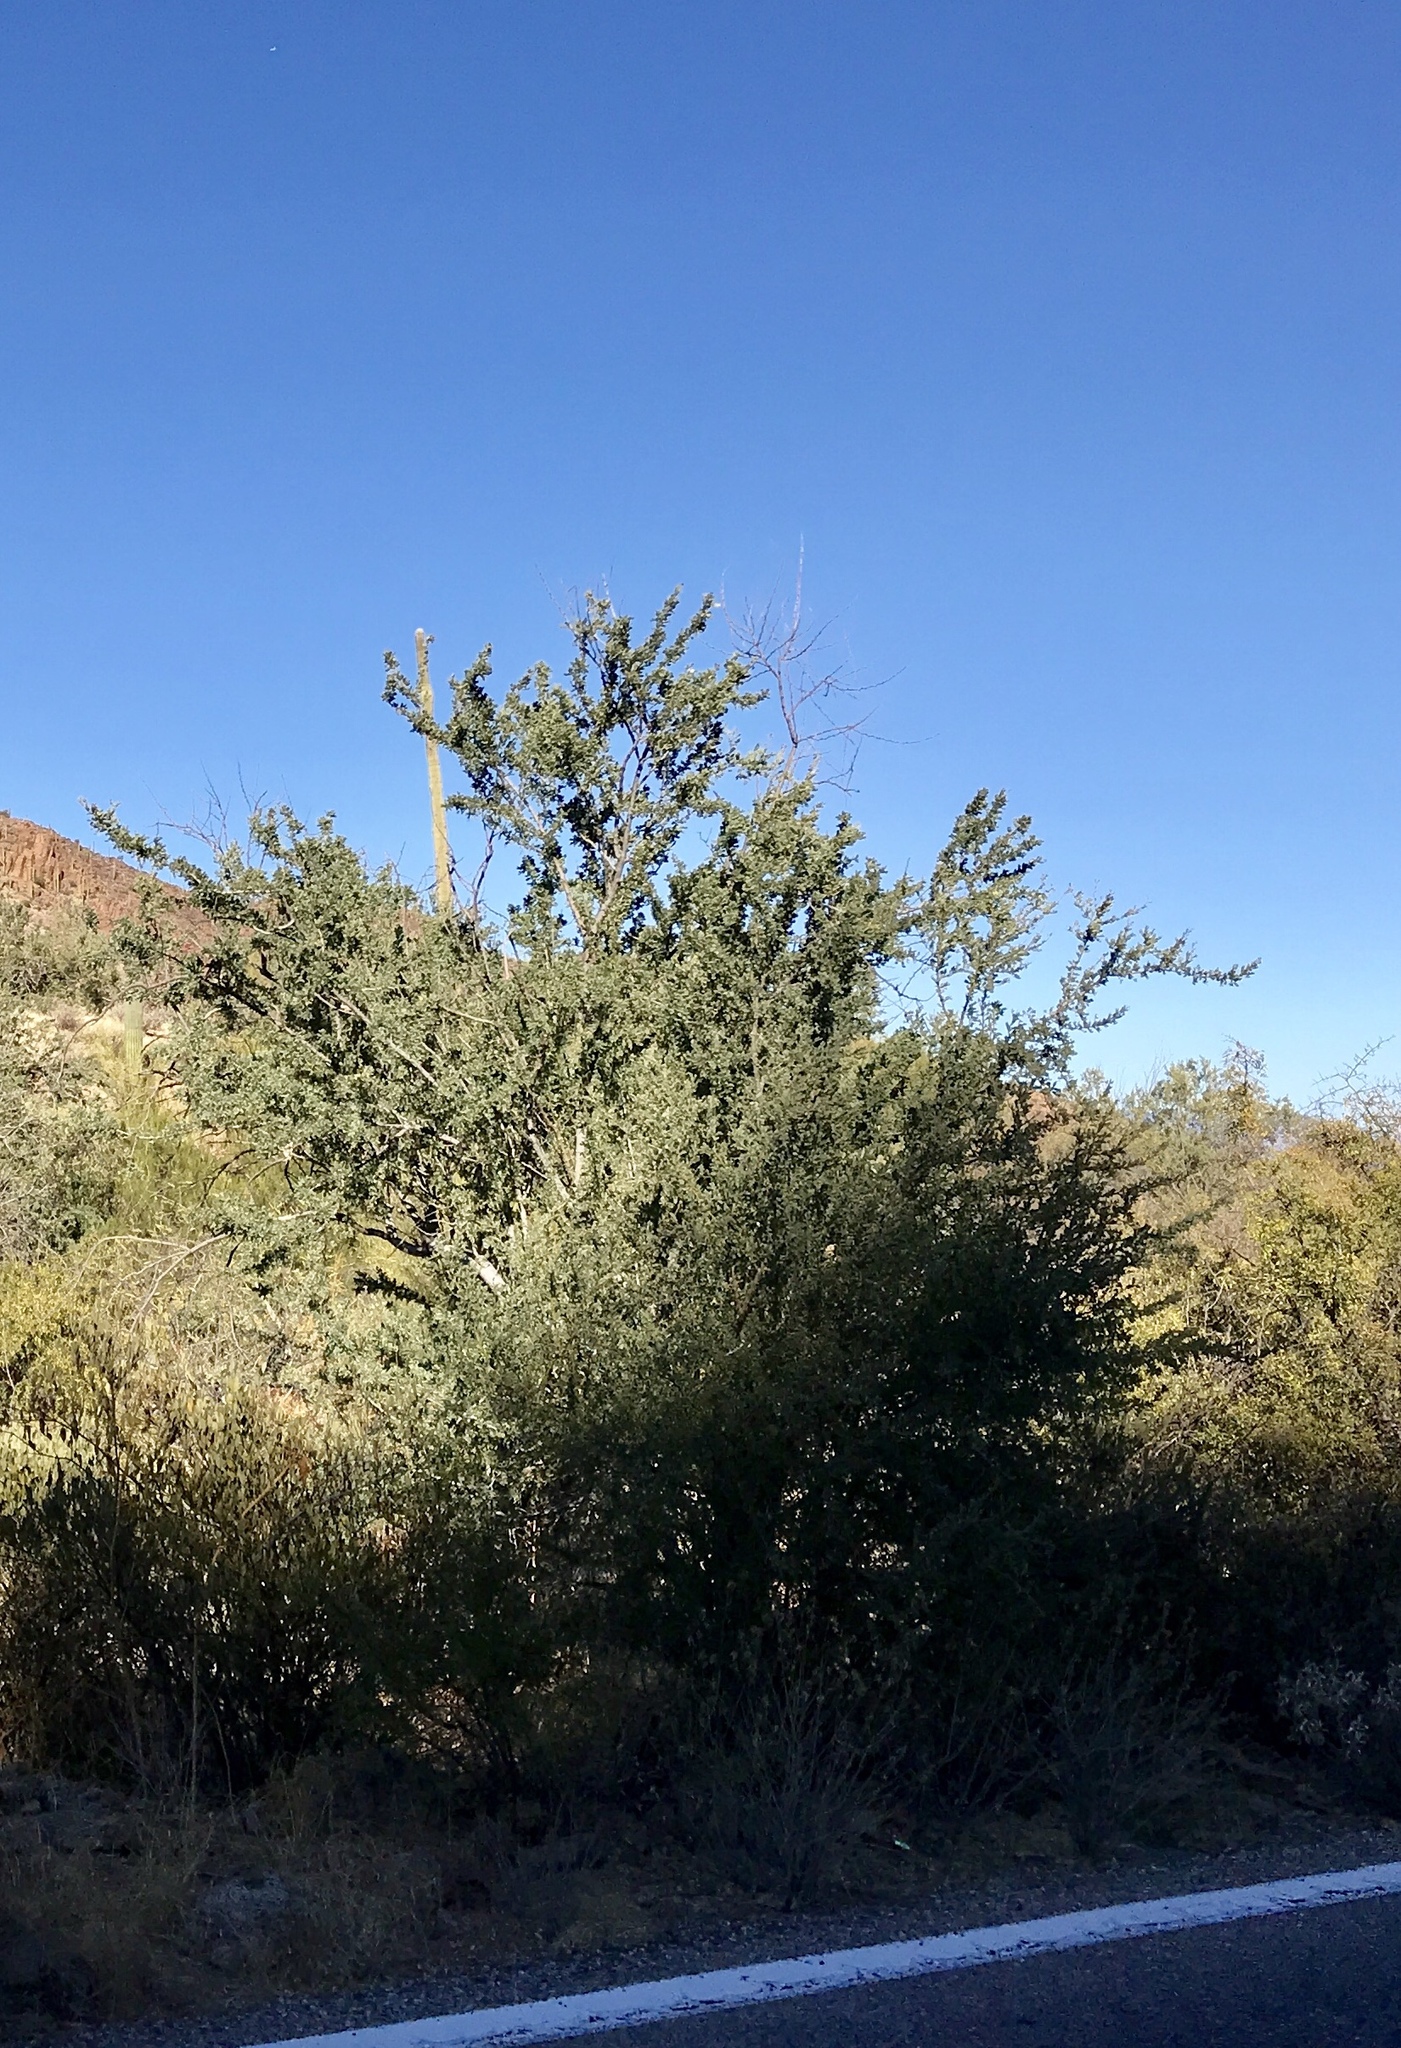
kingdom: Plantae
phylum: Tracheophyta
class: Magnoliopsida
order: Fabales
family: Fabaceae
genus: Olneya
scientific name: Olneya tesota
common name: Desert ironwood
